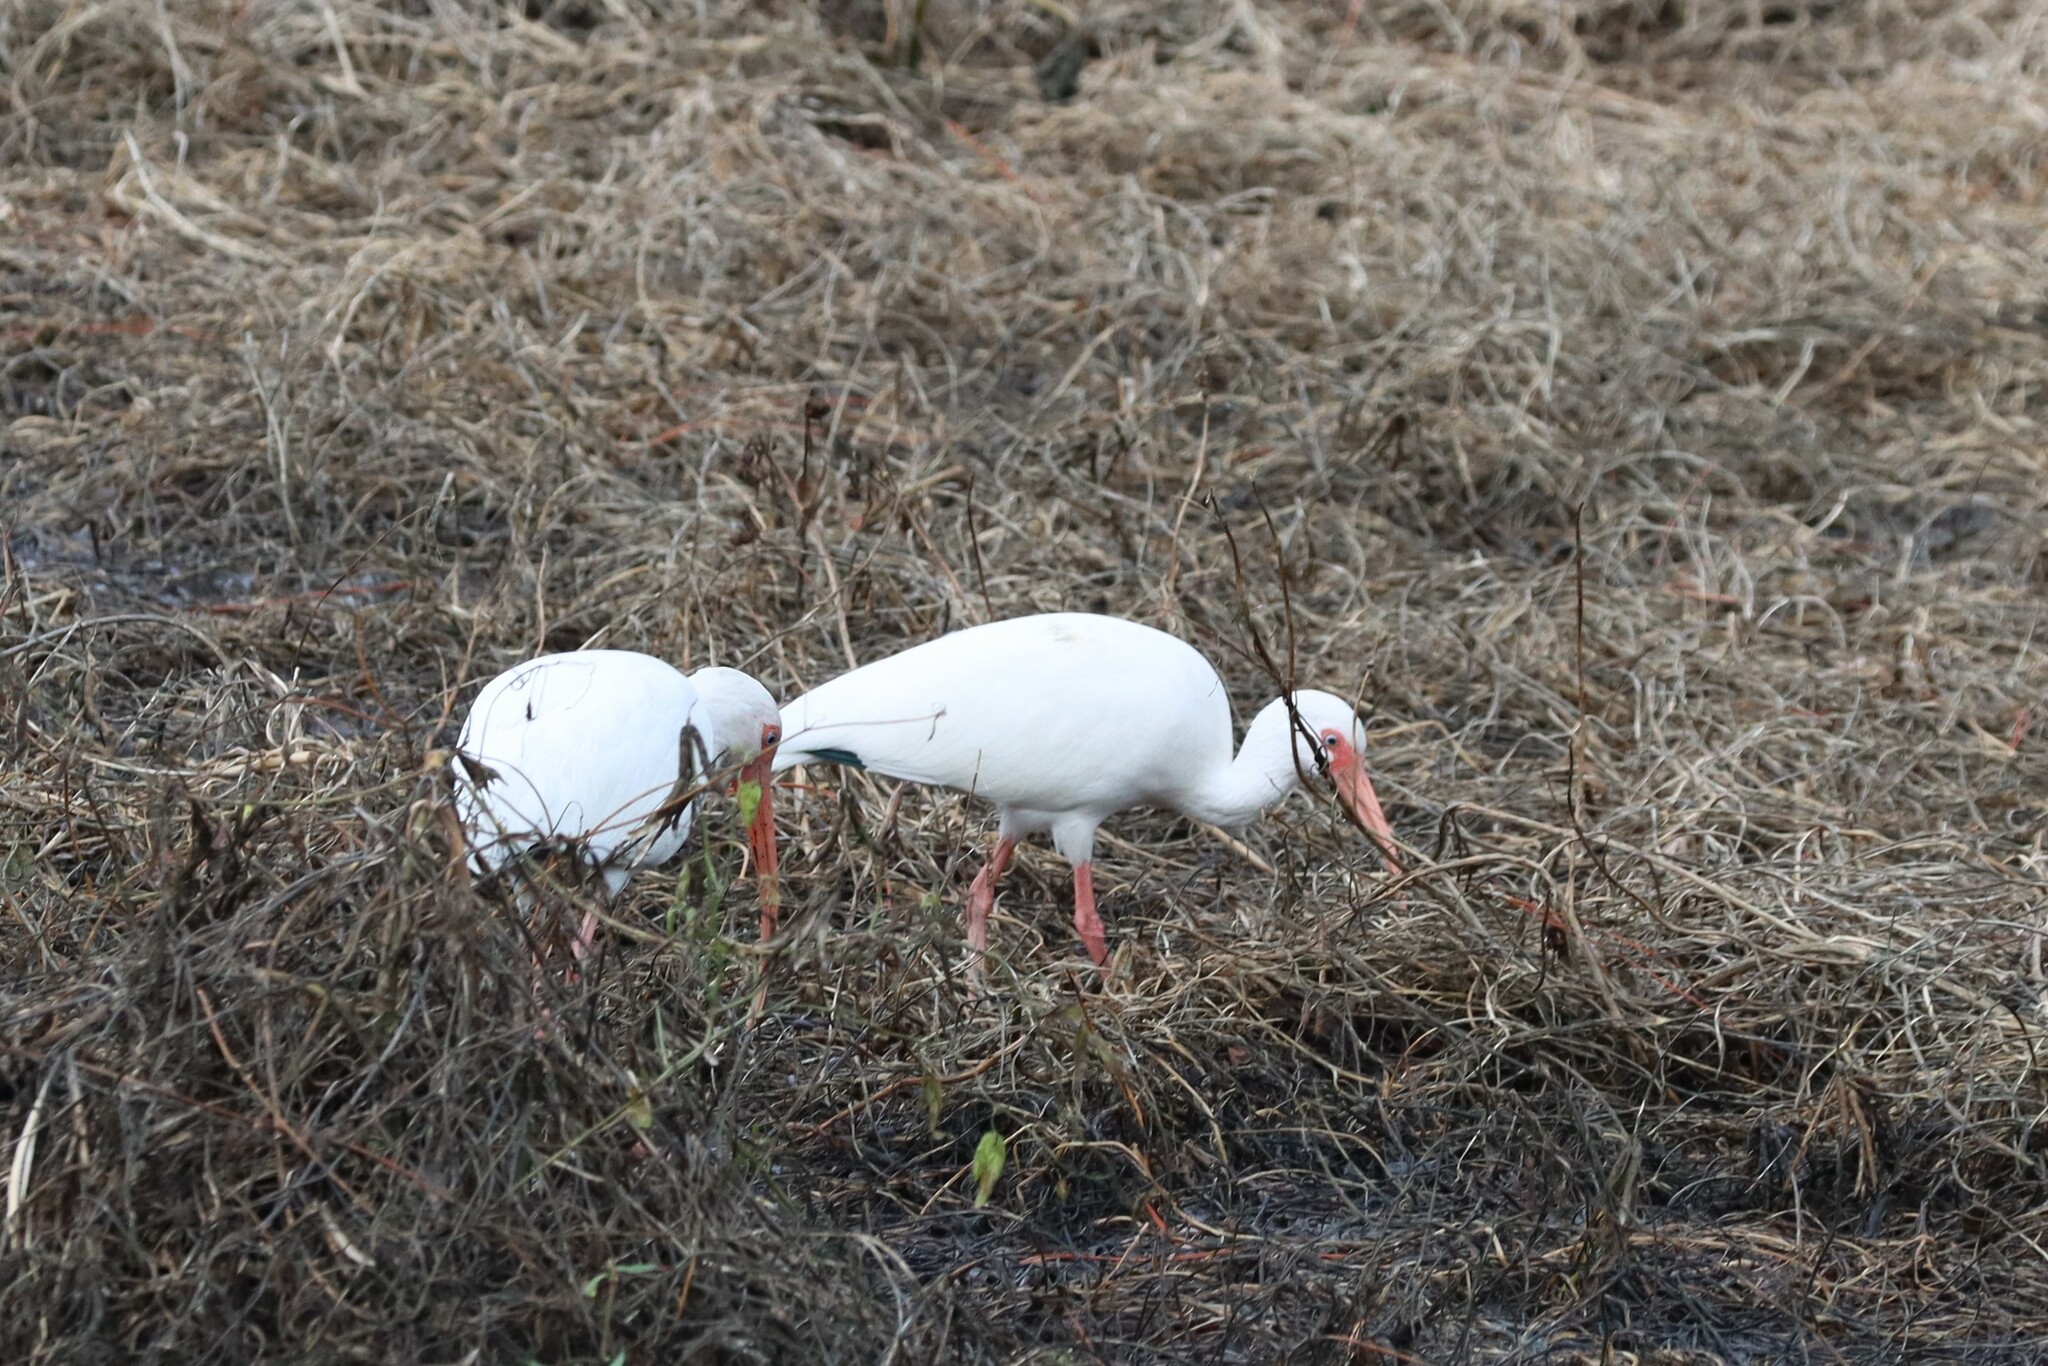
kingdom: Animalia
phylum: Chordata
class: Aves
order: Pelecaniformes
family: Threskiornithidae
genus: Eudocimus
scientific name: Eudocimus albus
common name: White ibis
